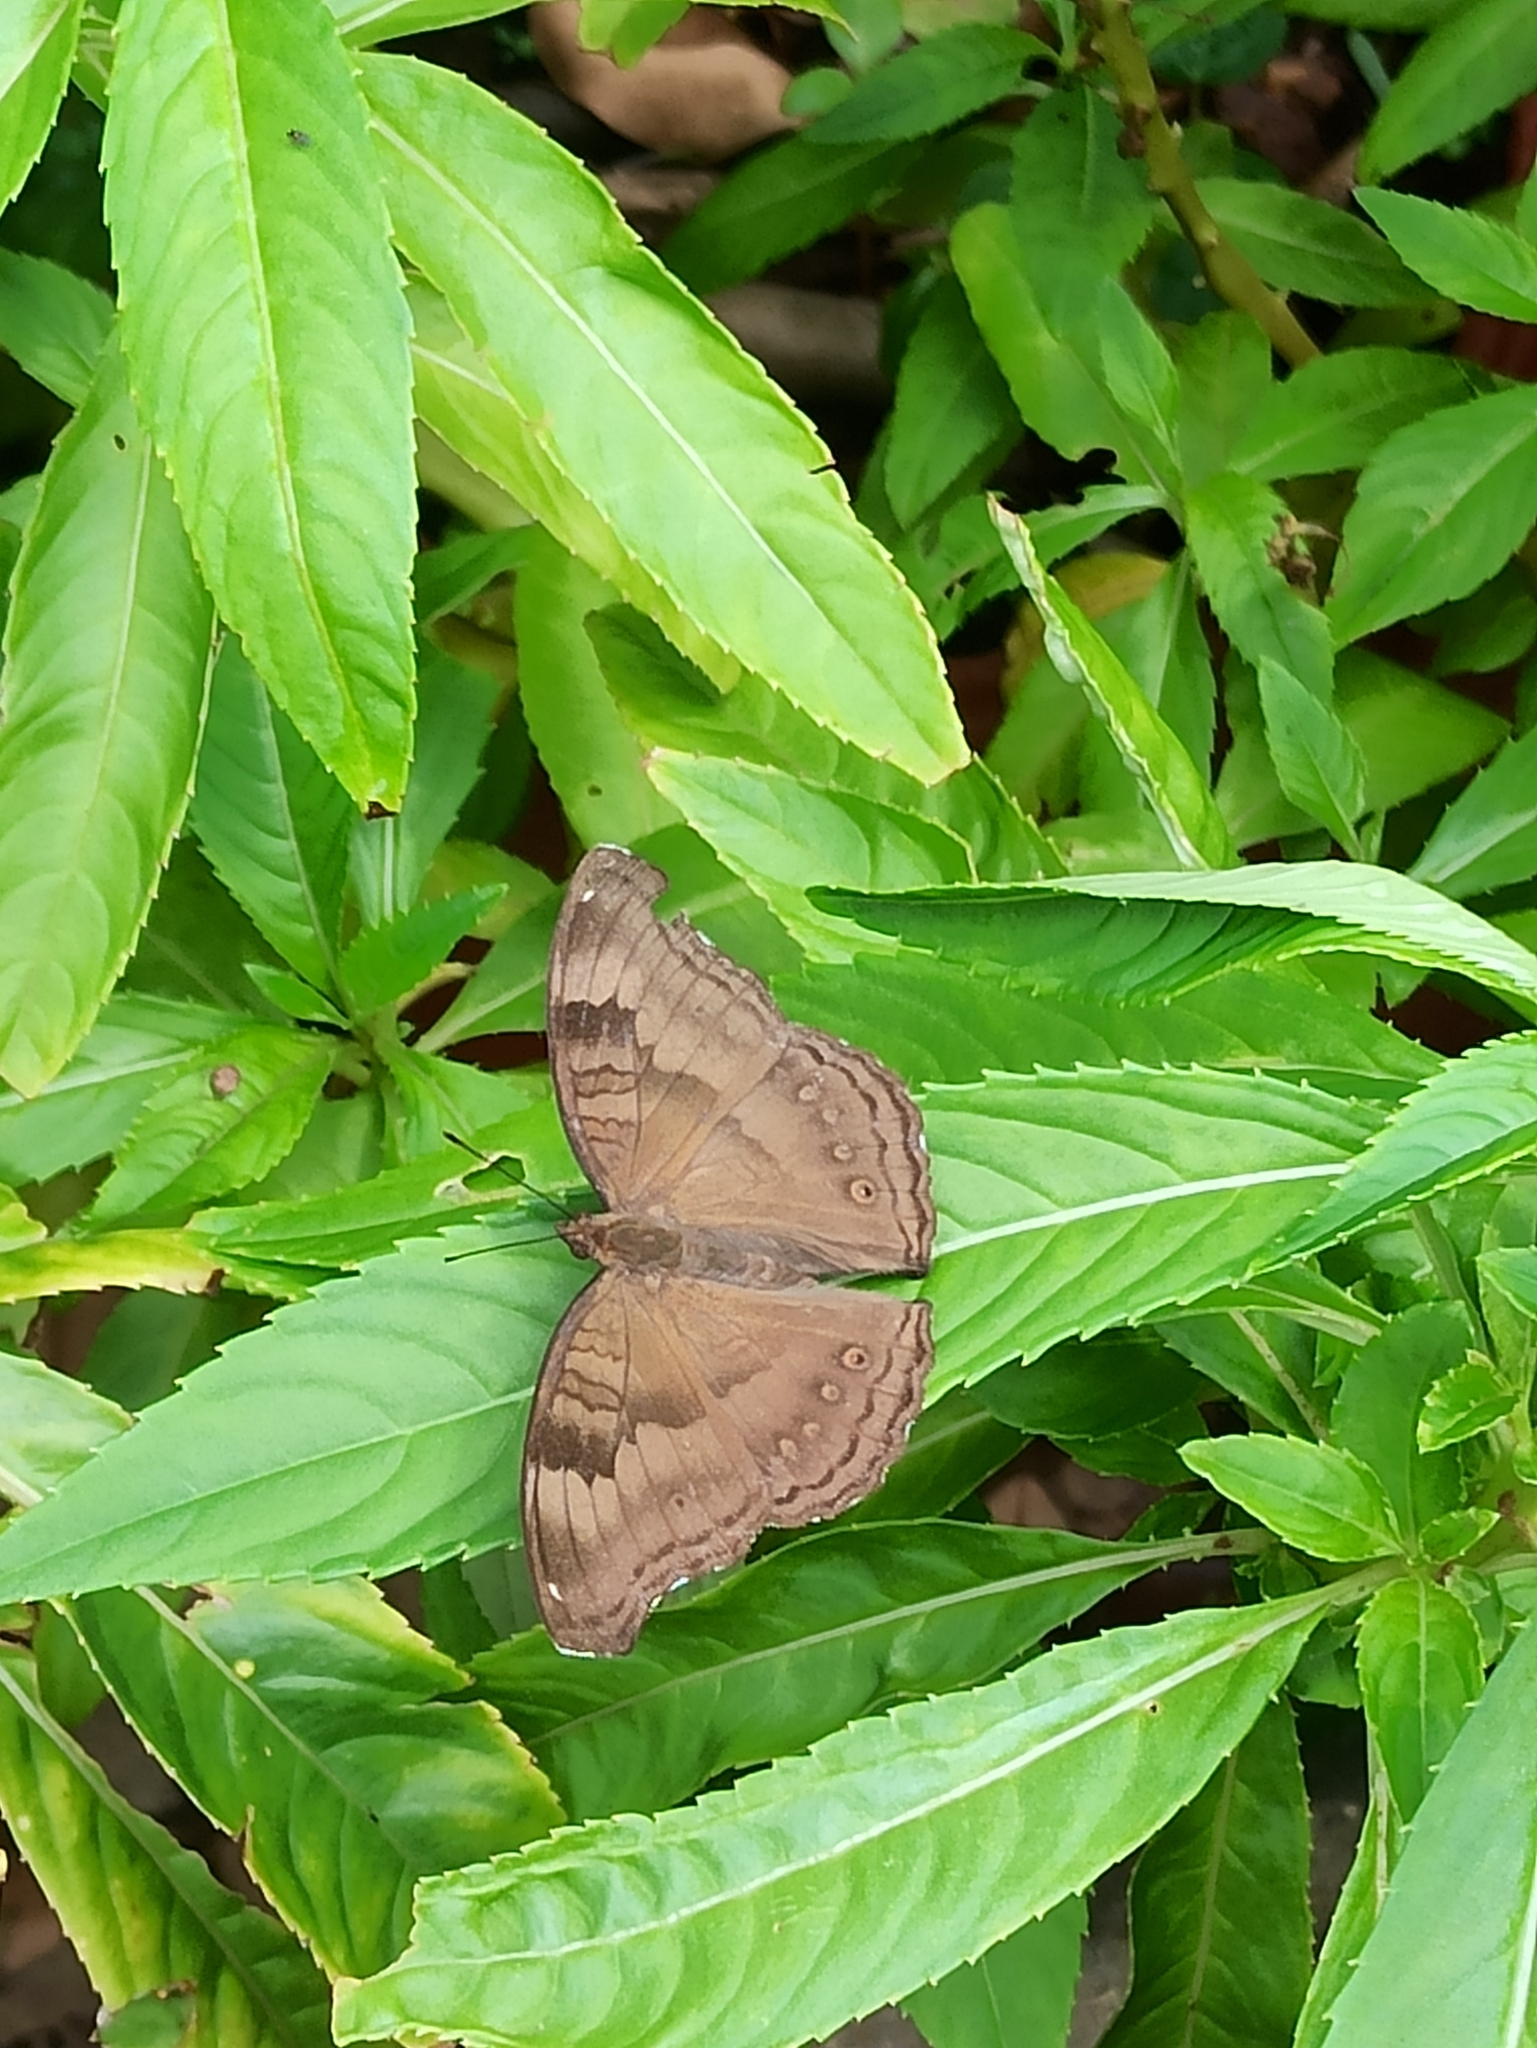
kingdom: Animalia
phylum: Arthropoda
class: Insecta
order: Lepidoptera
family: Nymphalidae
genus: Junonia
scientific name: Junonia iphita
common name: Chocolate pansy
